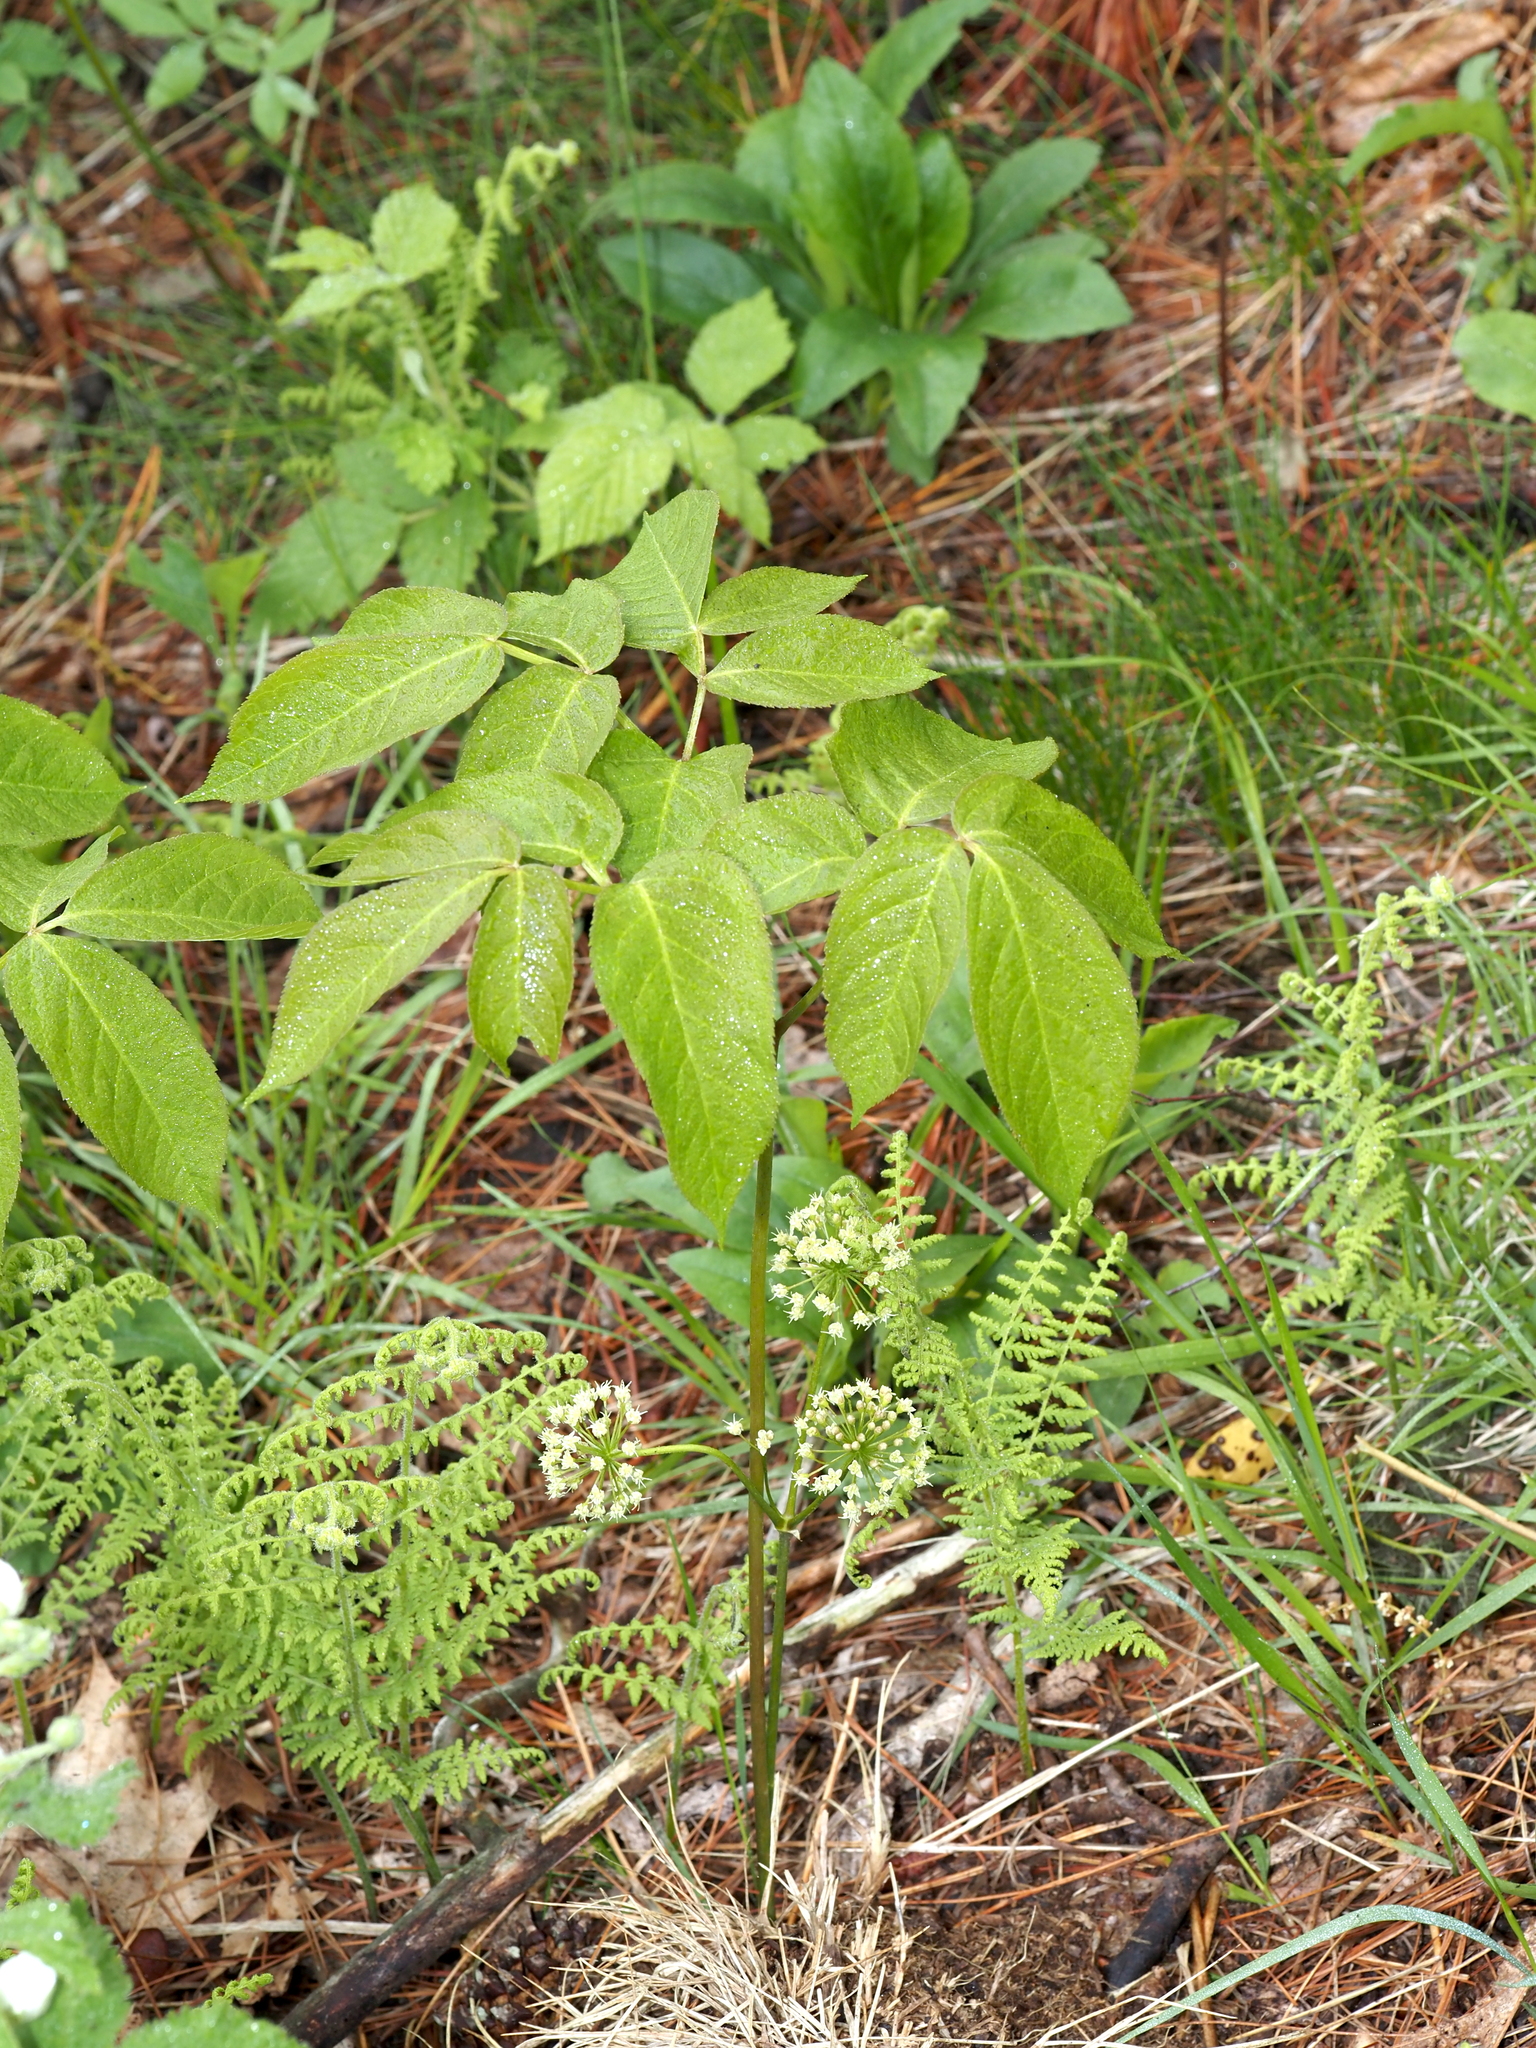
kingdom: Plantae
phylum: Tracheophyta
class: Magnoliopsida
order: Apiales
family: Araliaceae
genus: Aralia
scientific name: Aralia nudicaulis
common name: Wild sarsaparilla
